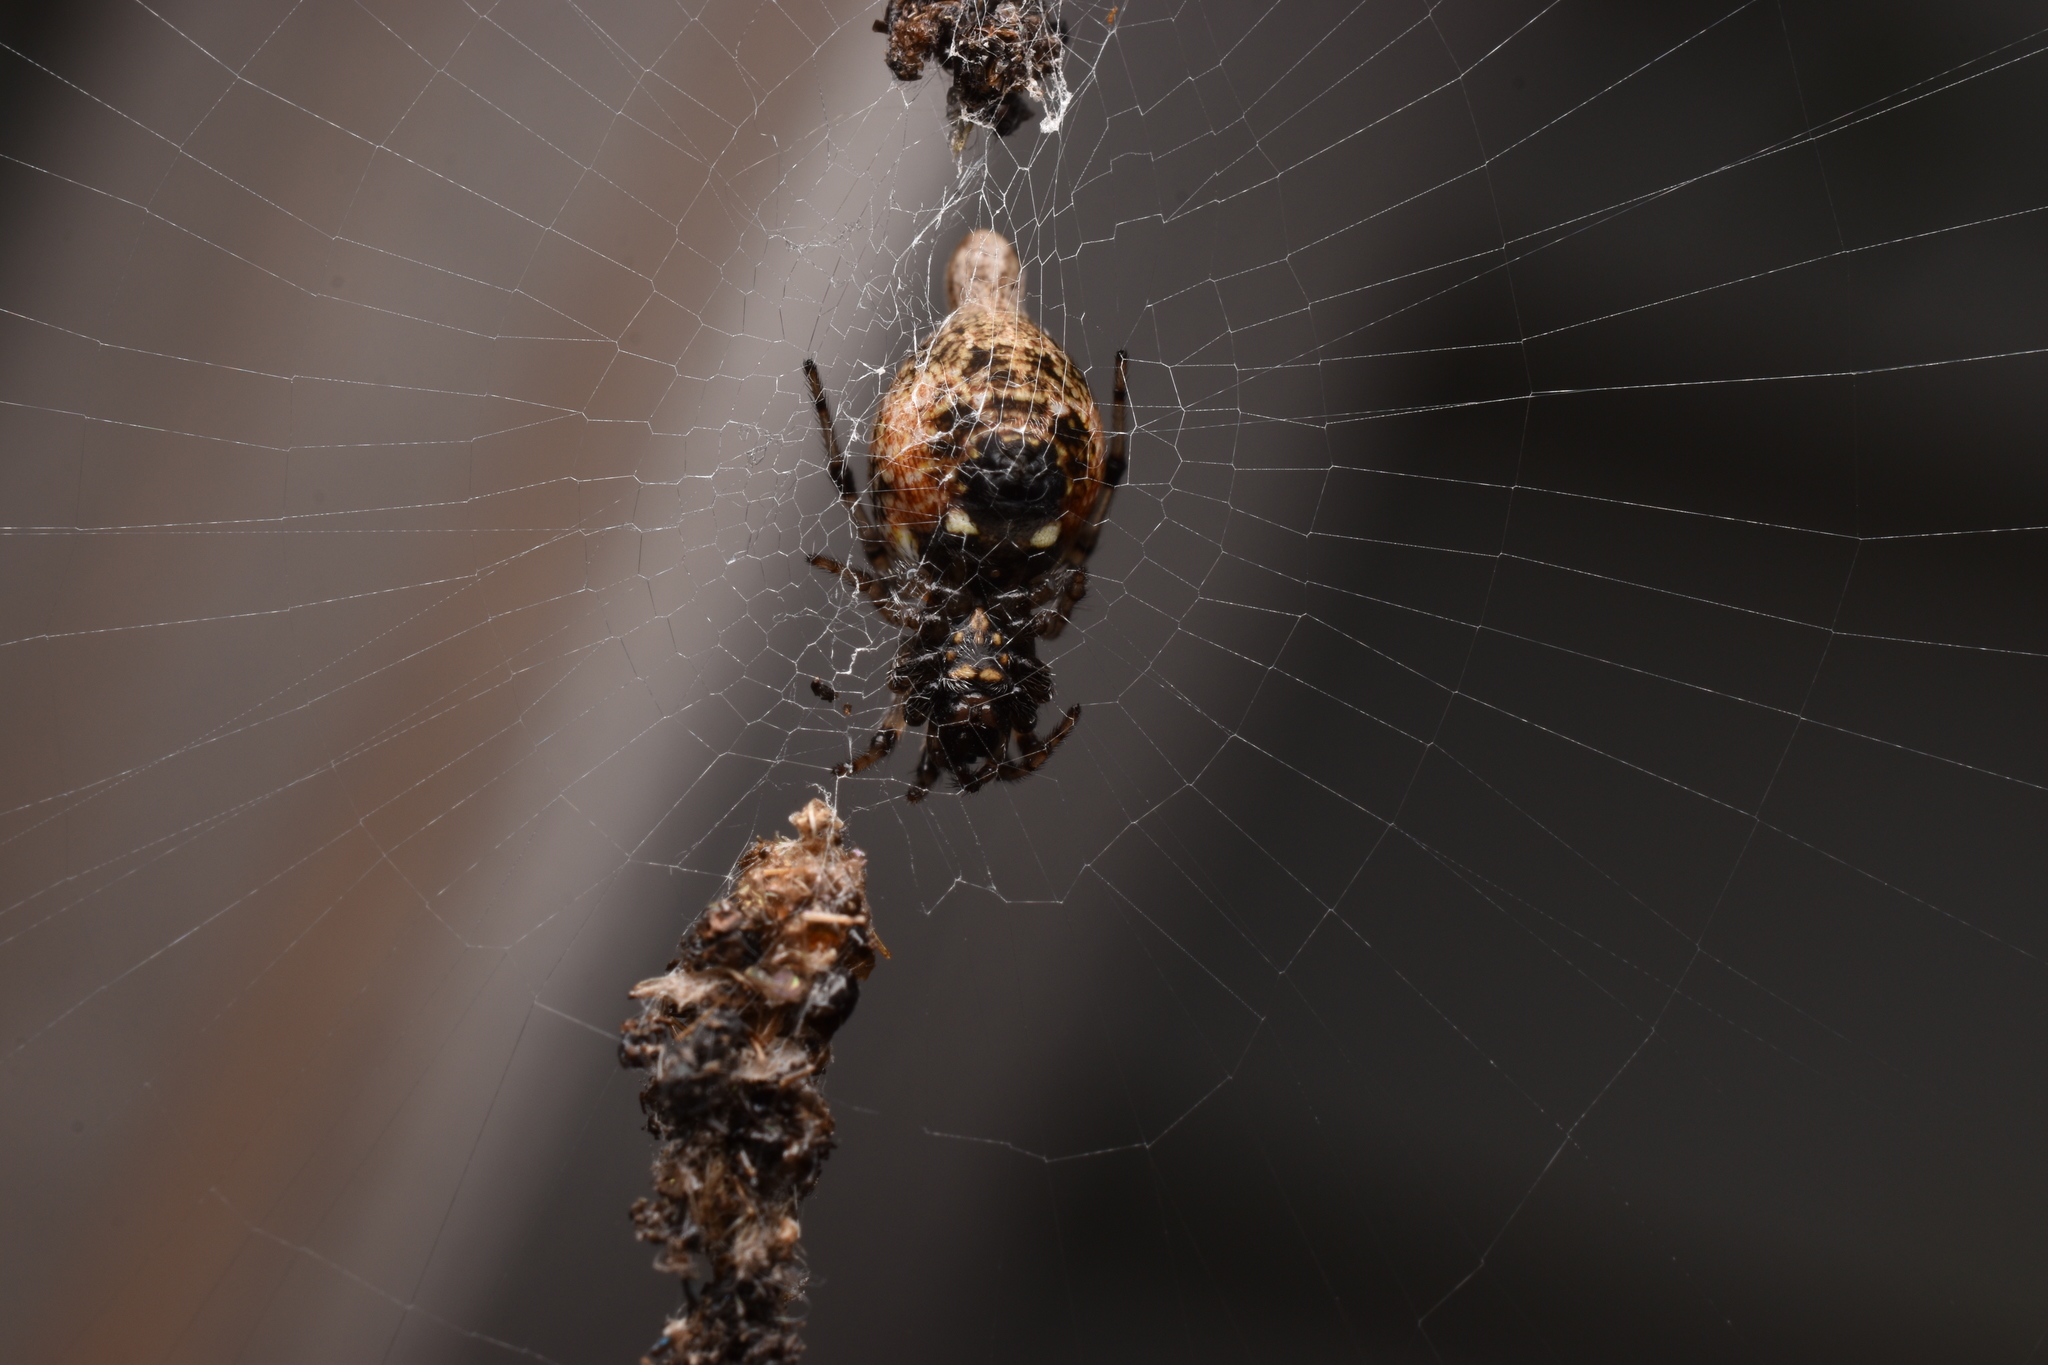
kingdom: Animalia
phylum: Arthropoda
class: Arachnida
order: Araneae
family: Araneidae
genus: Cyclosa
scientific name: Cyclosa turbinata
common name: Orb weavers
